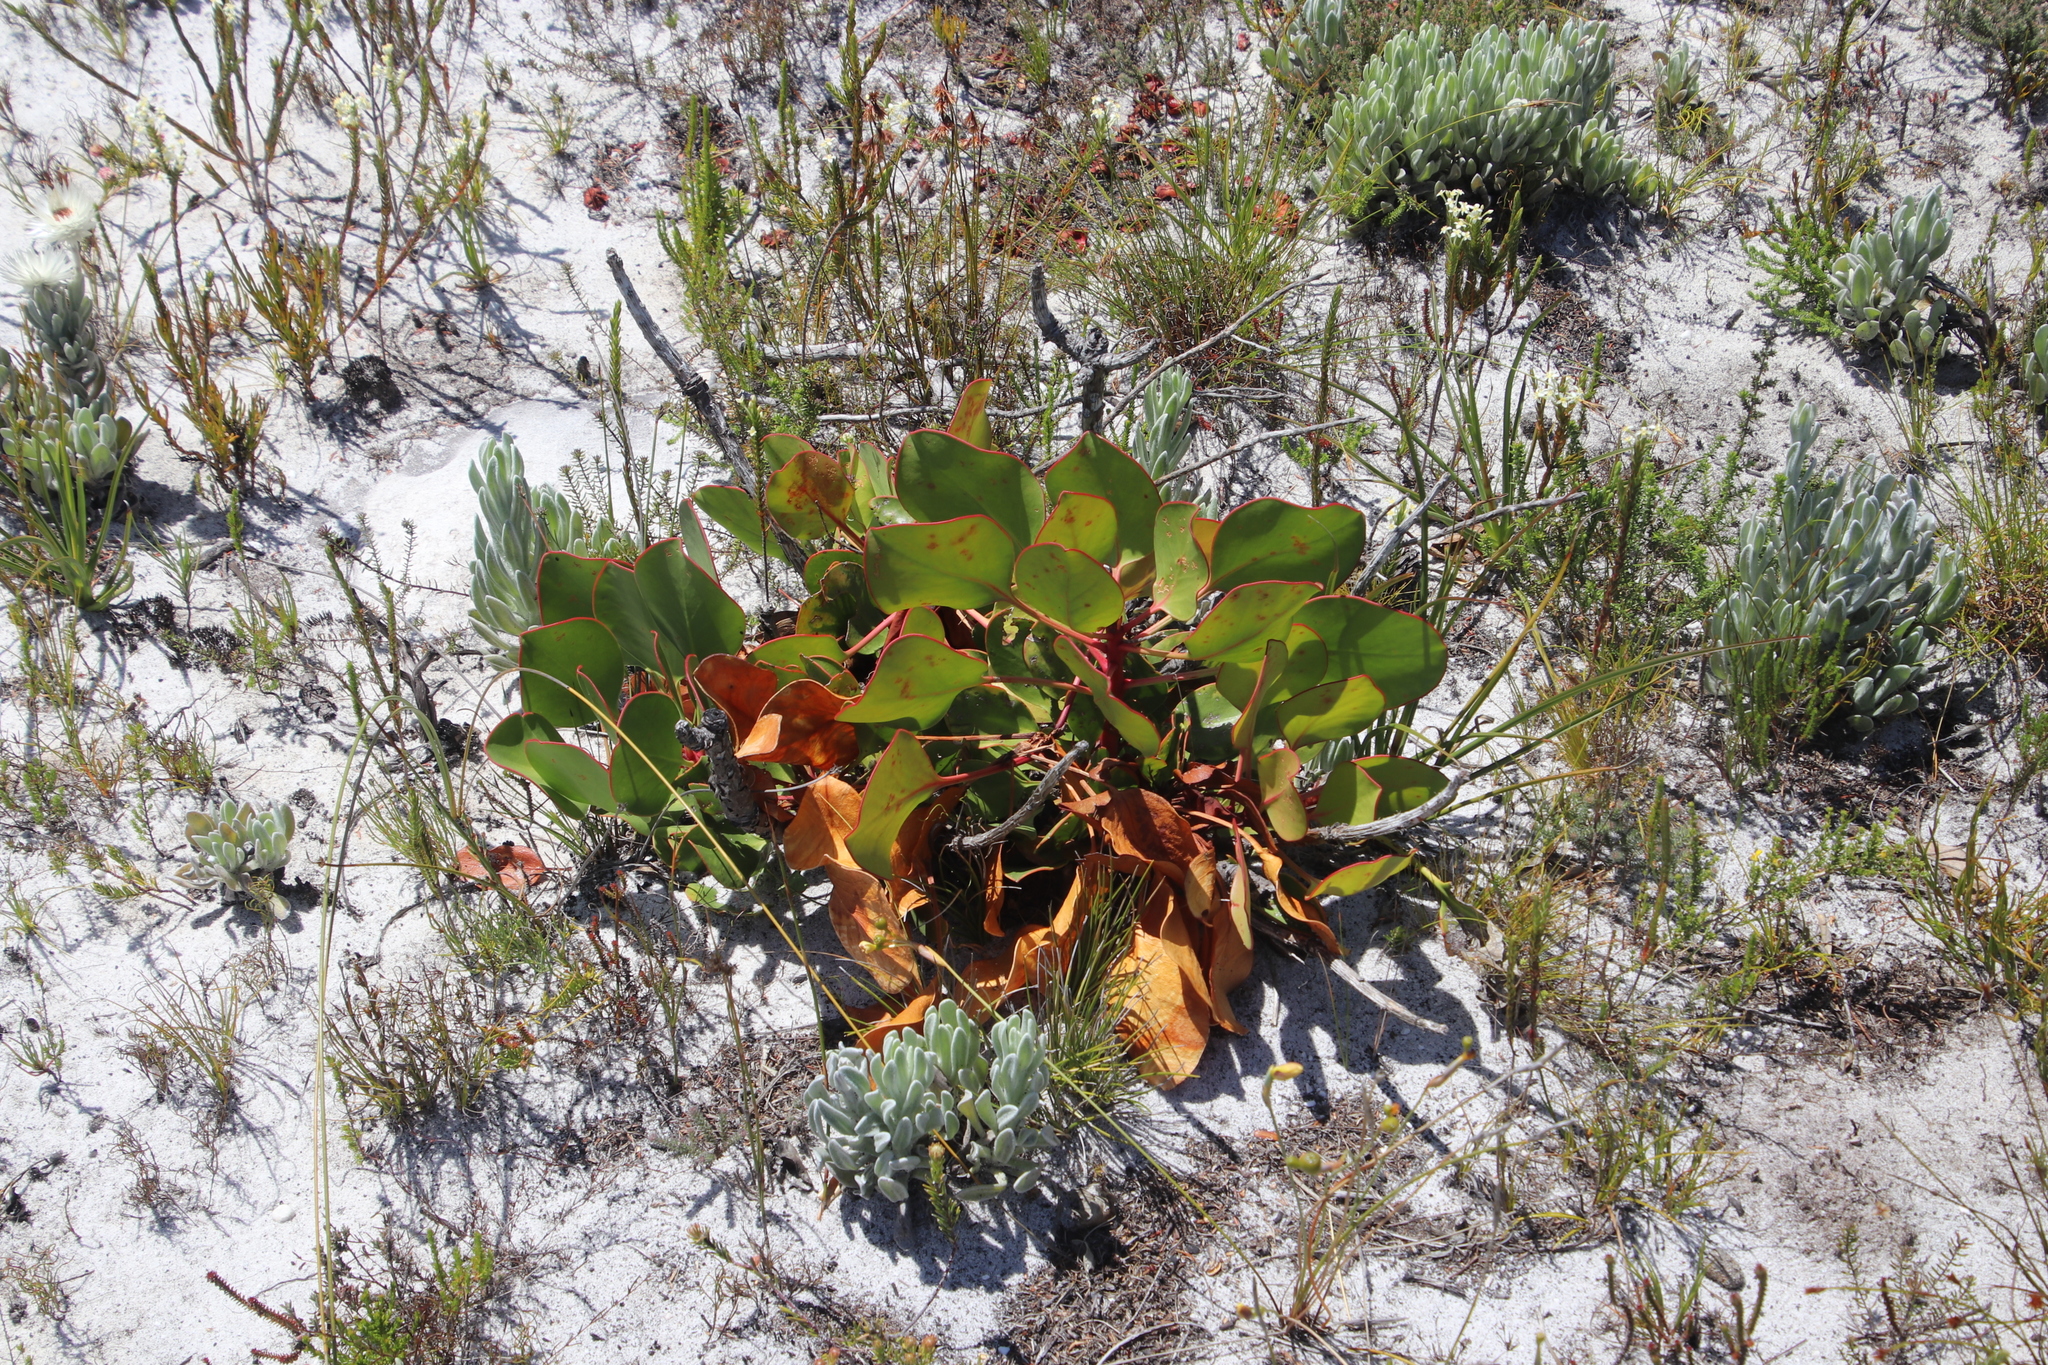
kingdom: Plantae
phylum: Tracheophyta
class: Magnoliopsida
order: Proteales
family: Proteaceae
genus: Protea
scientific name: Protea cynaroides
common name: King protea
